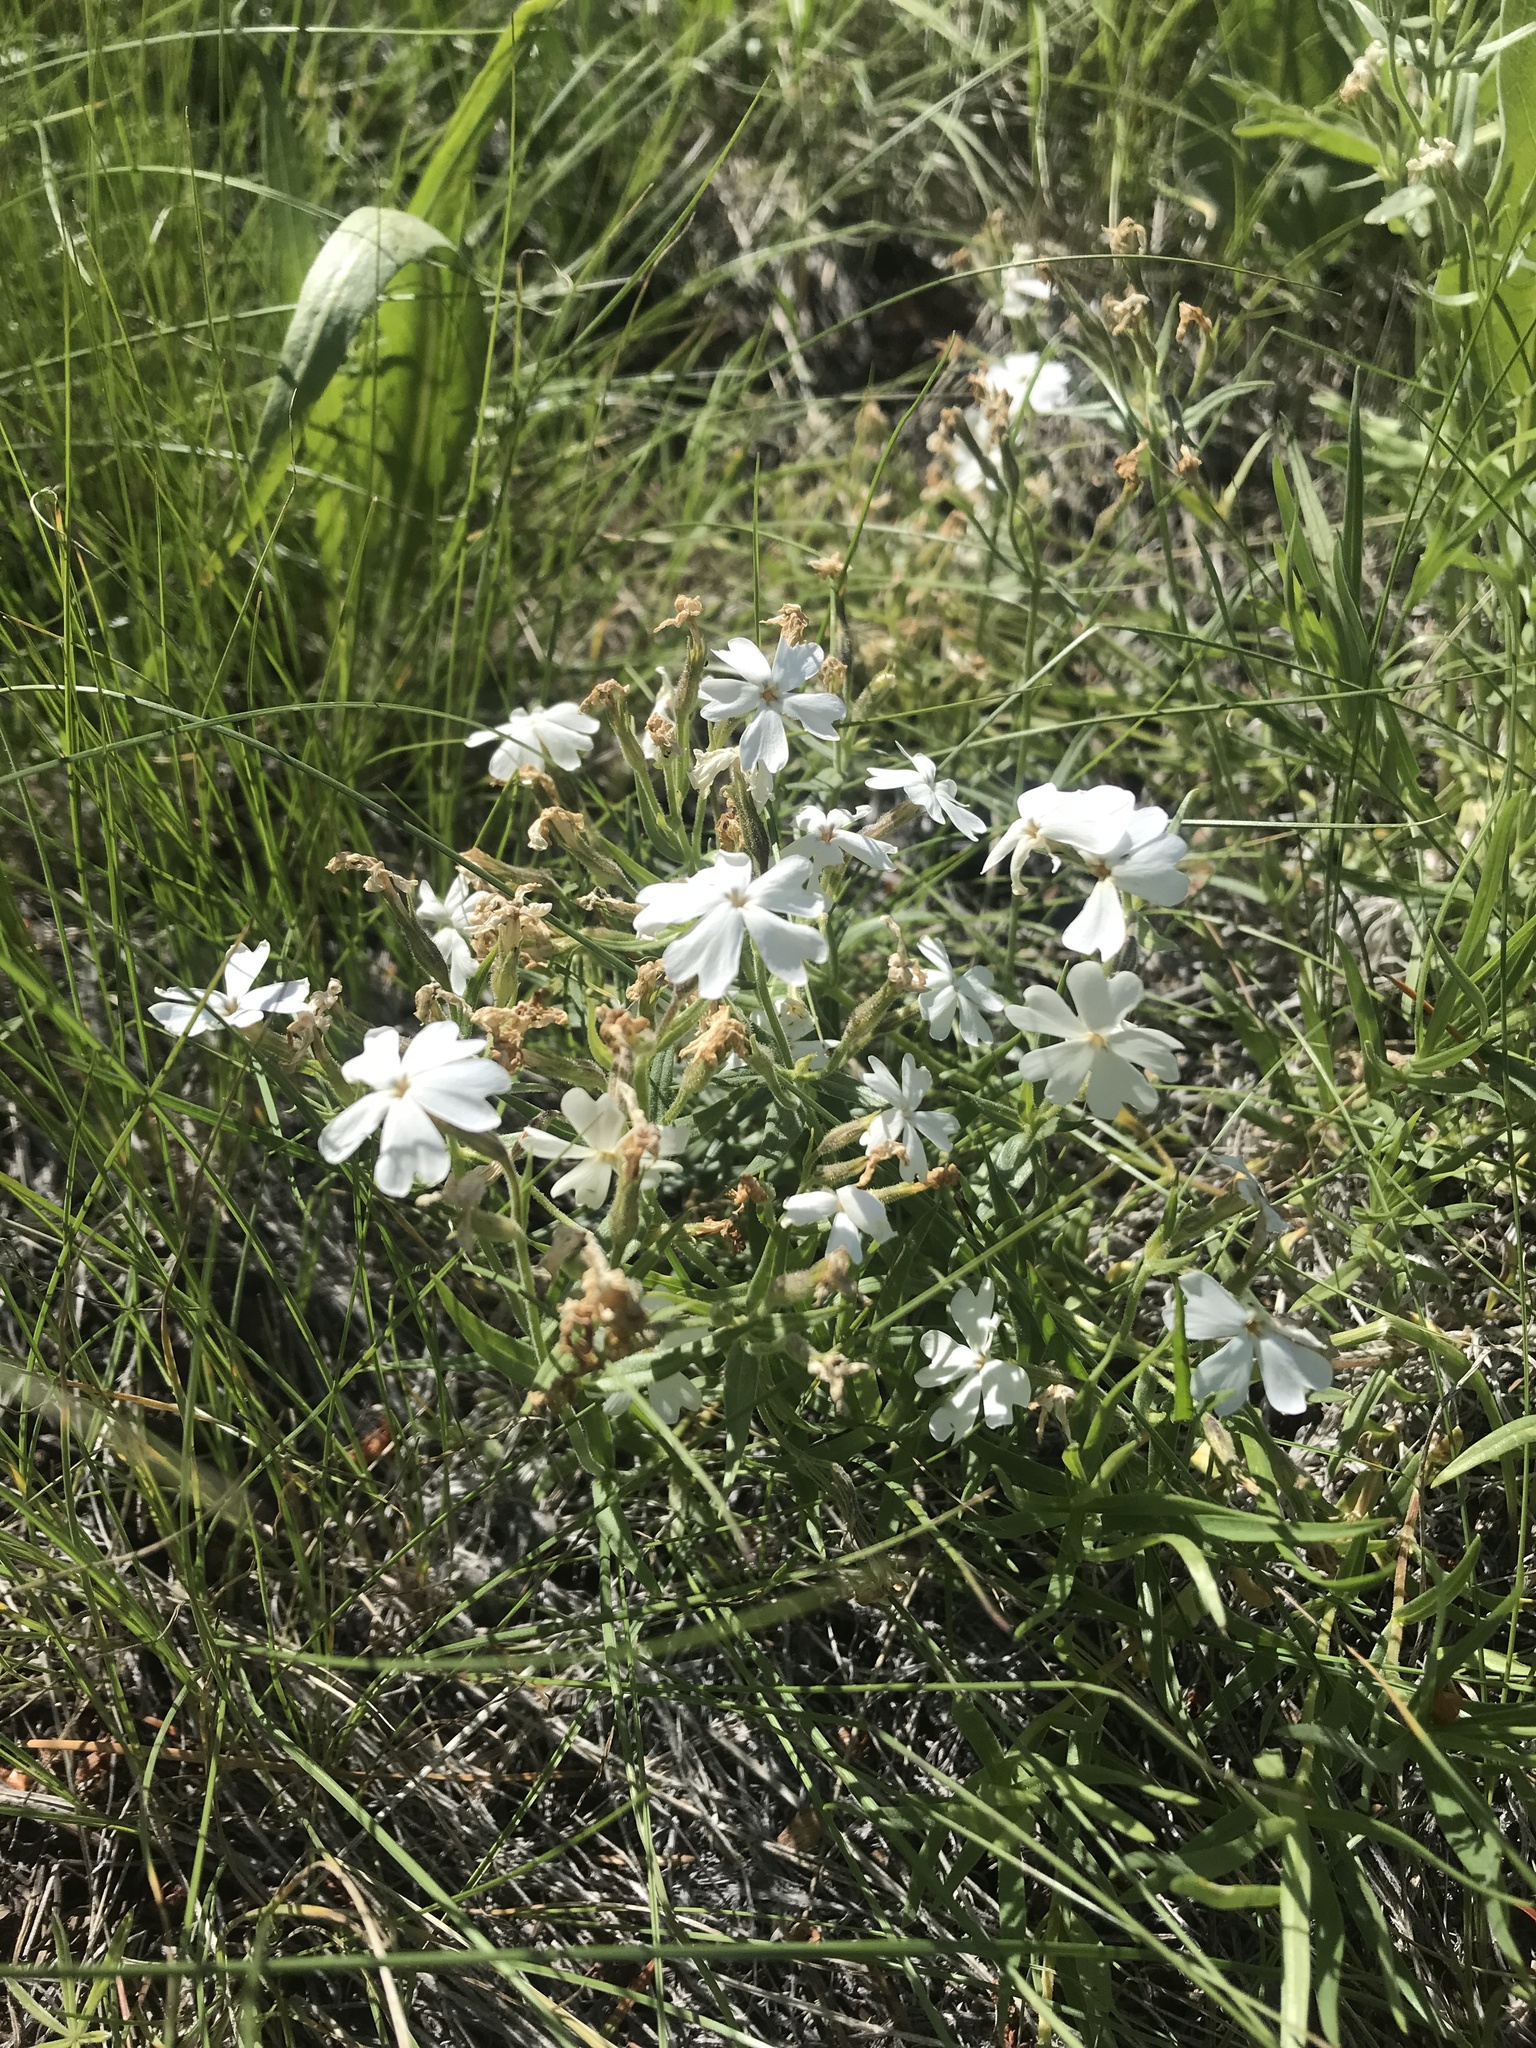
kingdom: Plantae
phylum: Tracheophyta
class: Magnoliopsida
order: Ericales
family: Polemoniaceae
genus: Phlox
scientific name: Phlox speciosa
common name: Bush phlox
